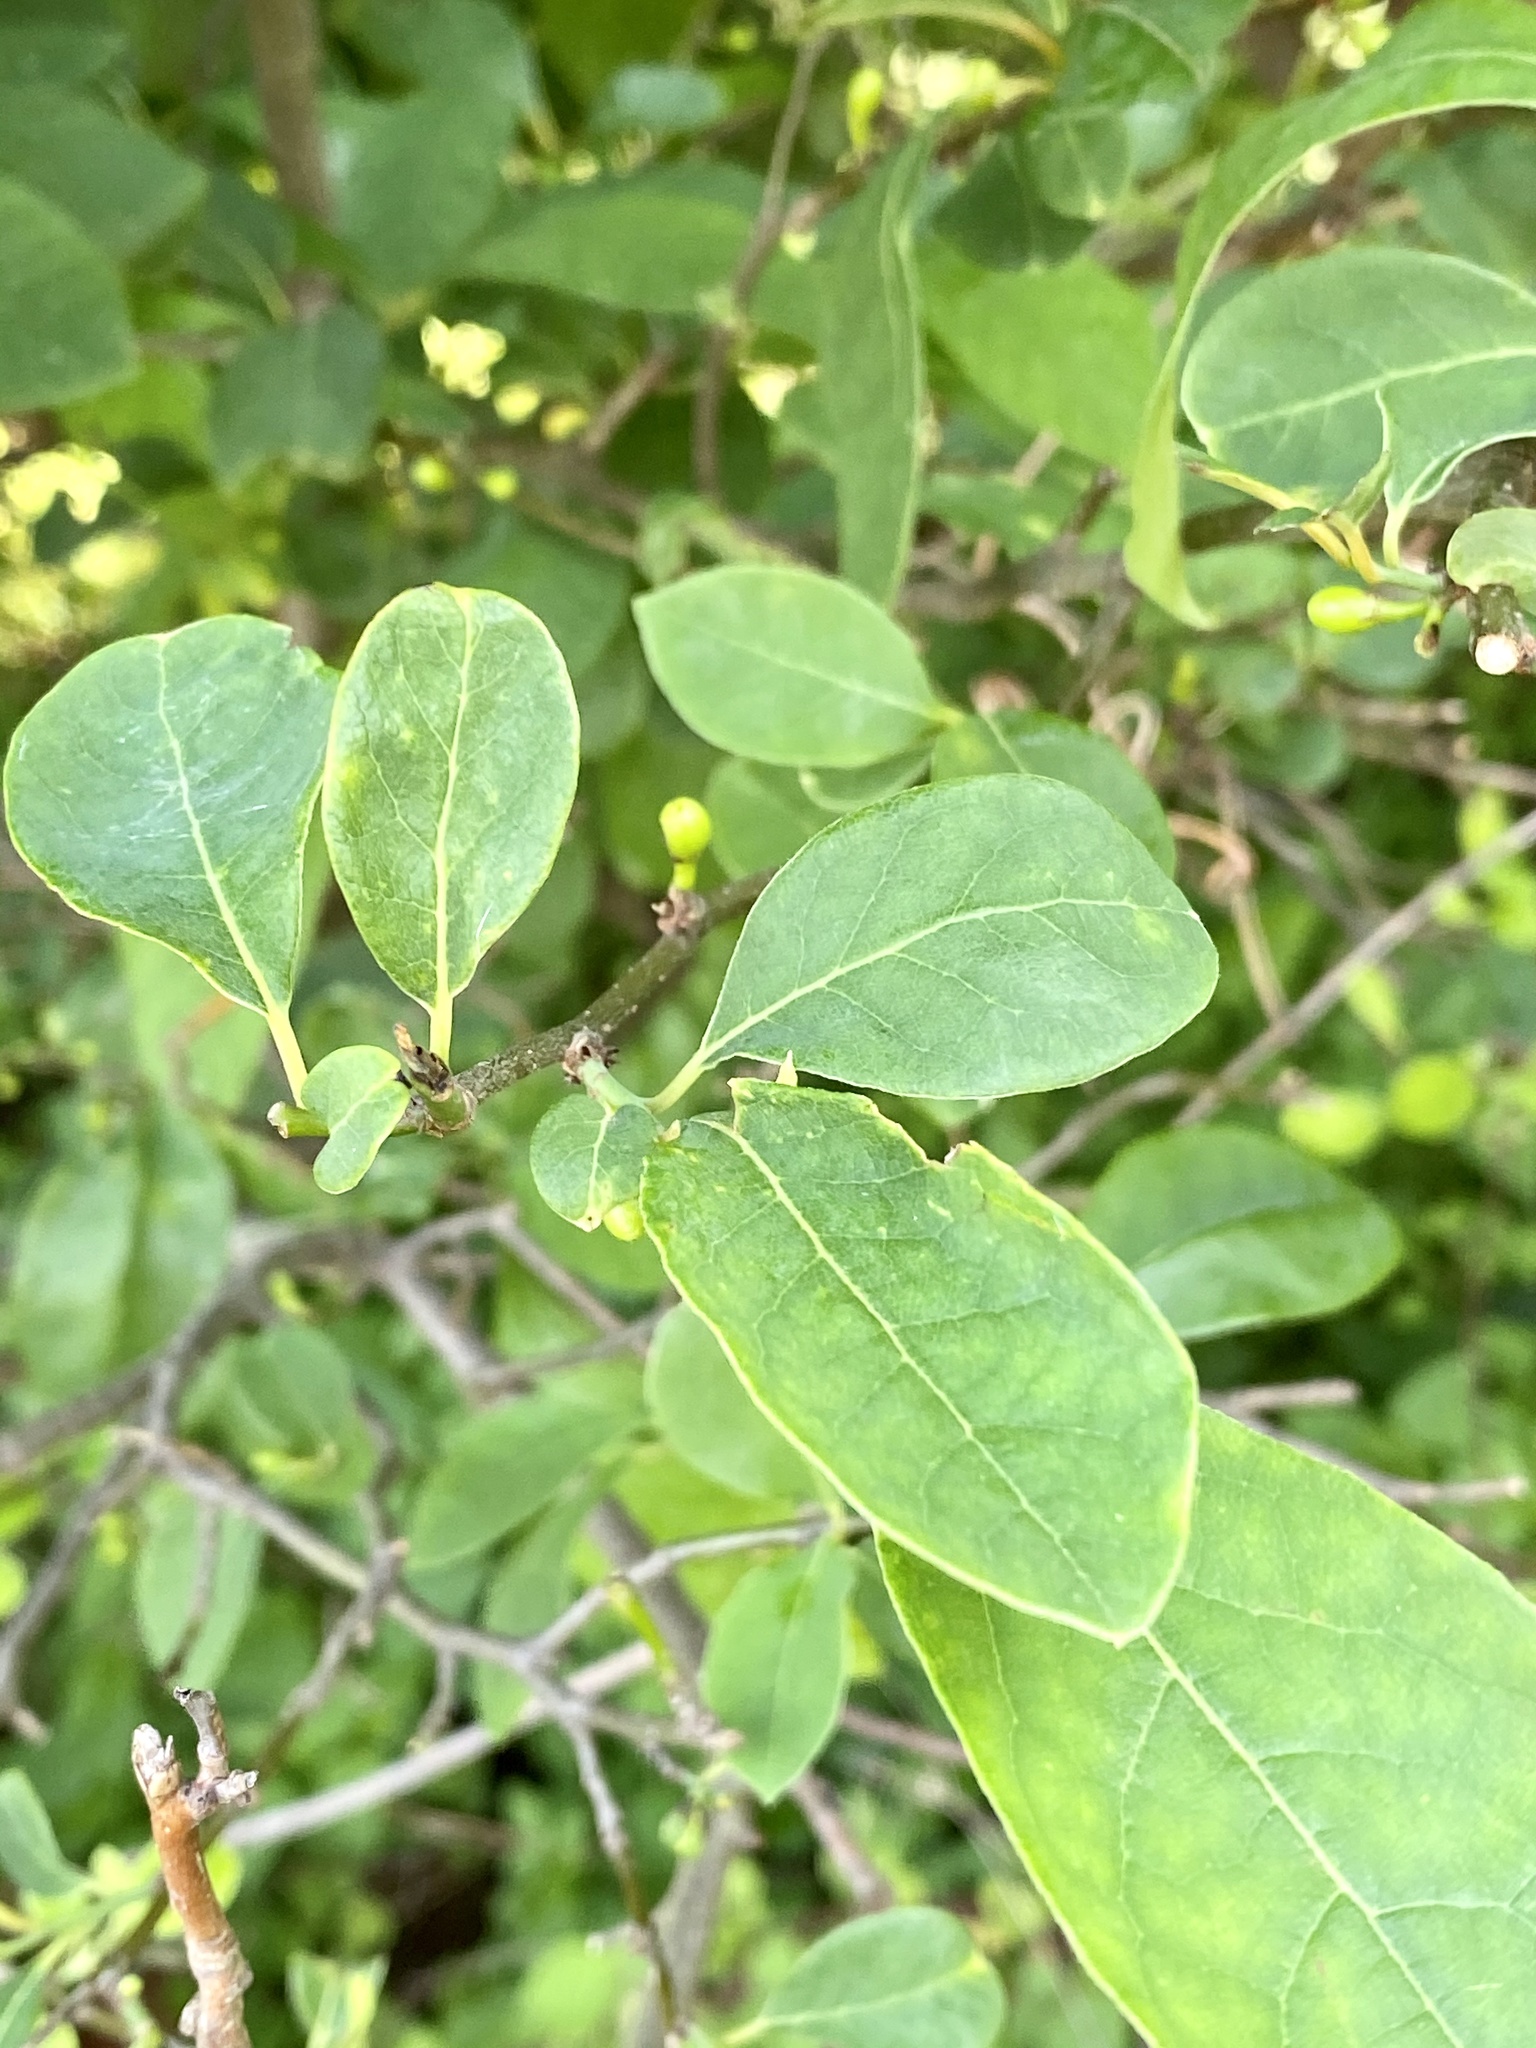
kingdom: Plantae
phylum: Tracheophyta
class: Magnoliopsida
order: Laurales
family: Lauraceae
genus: Lindera
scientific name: Lindera benzoin
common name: Spicebush
